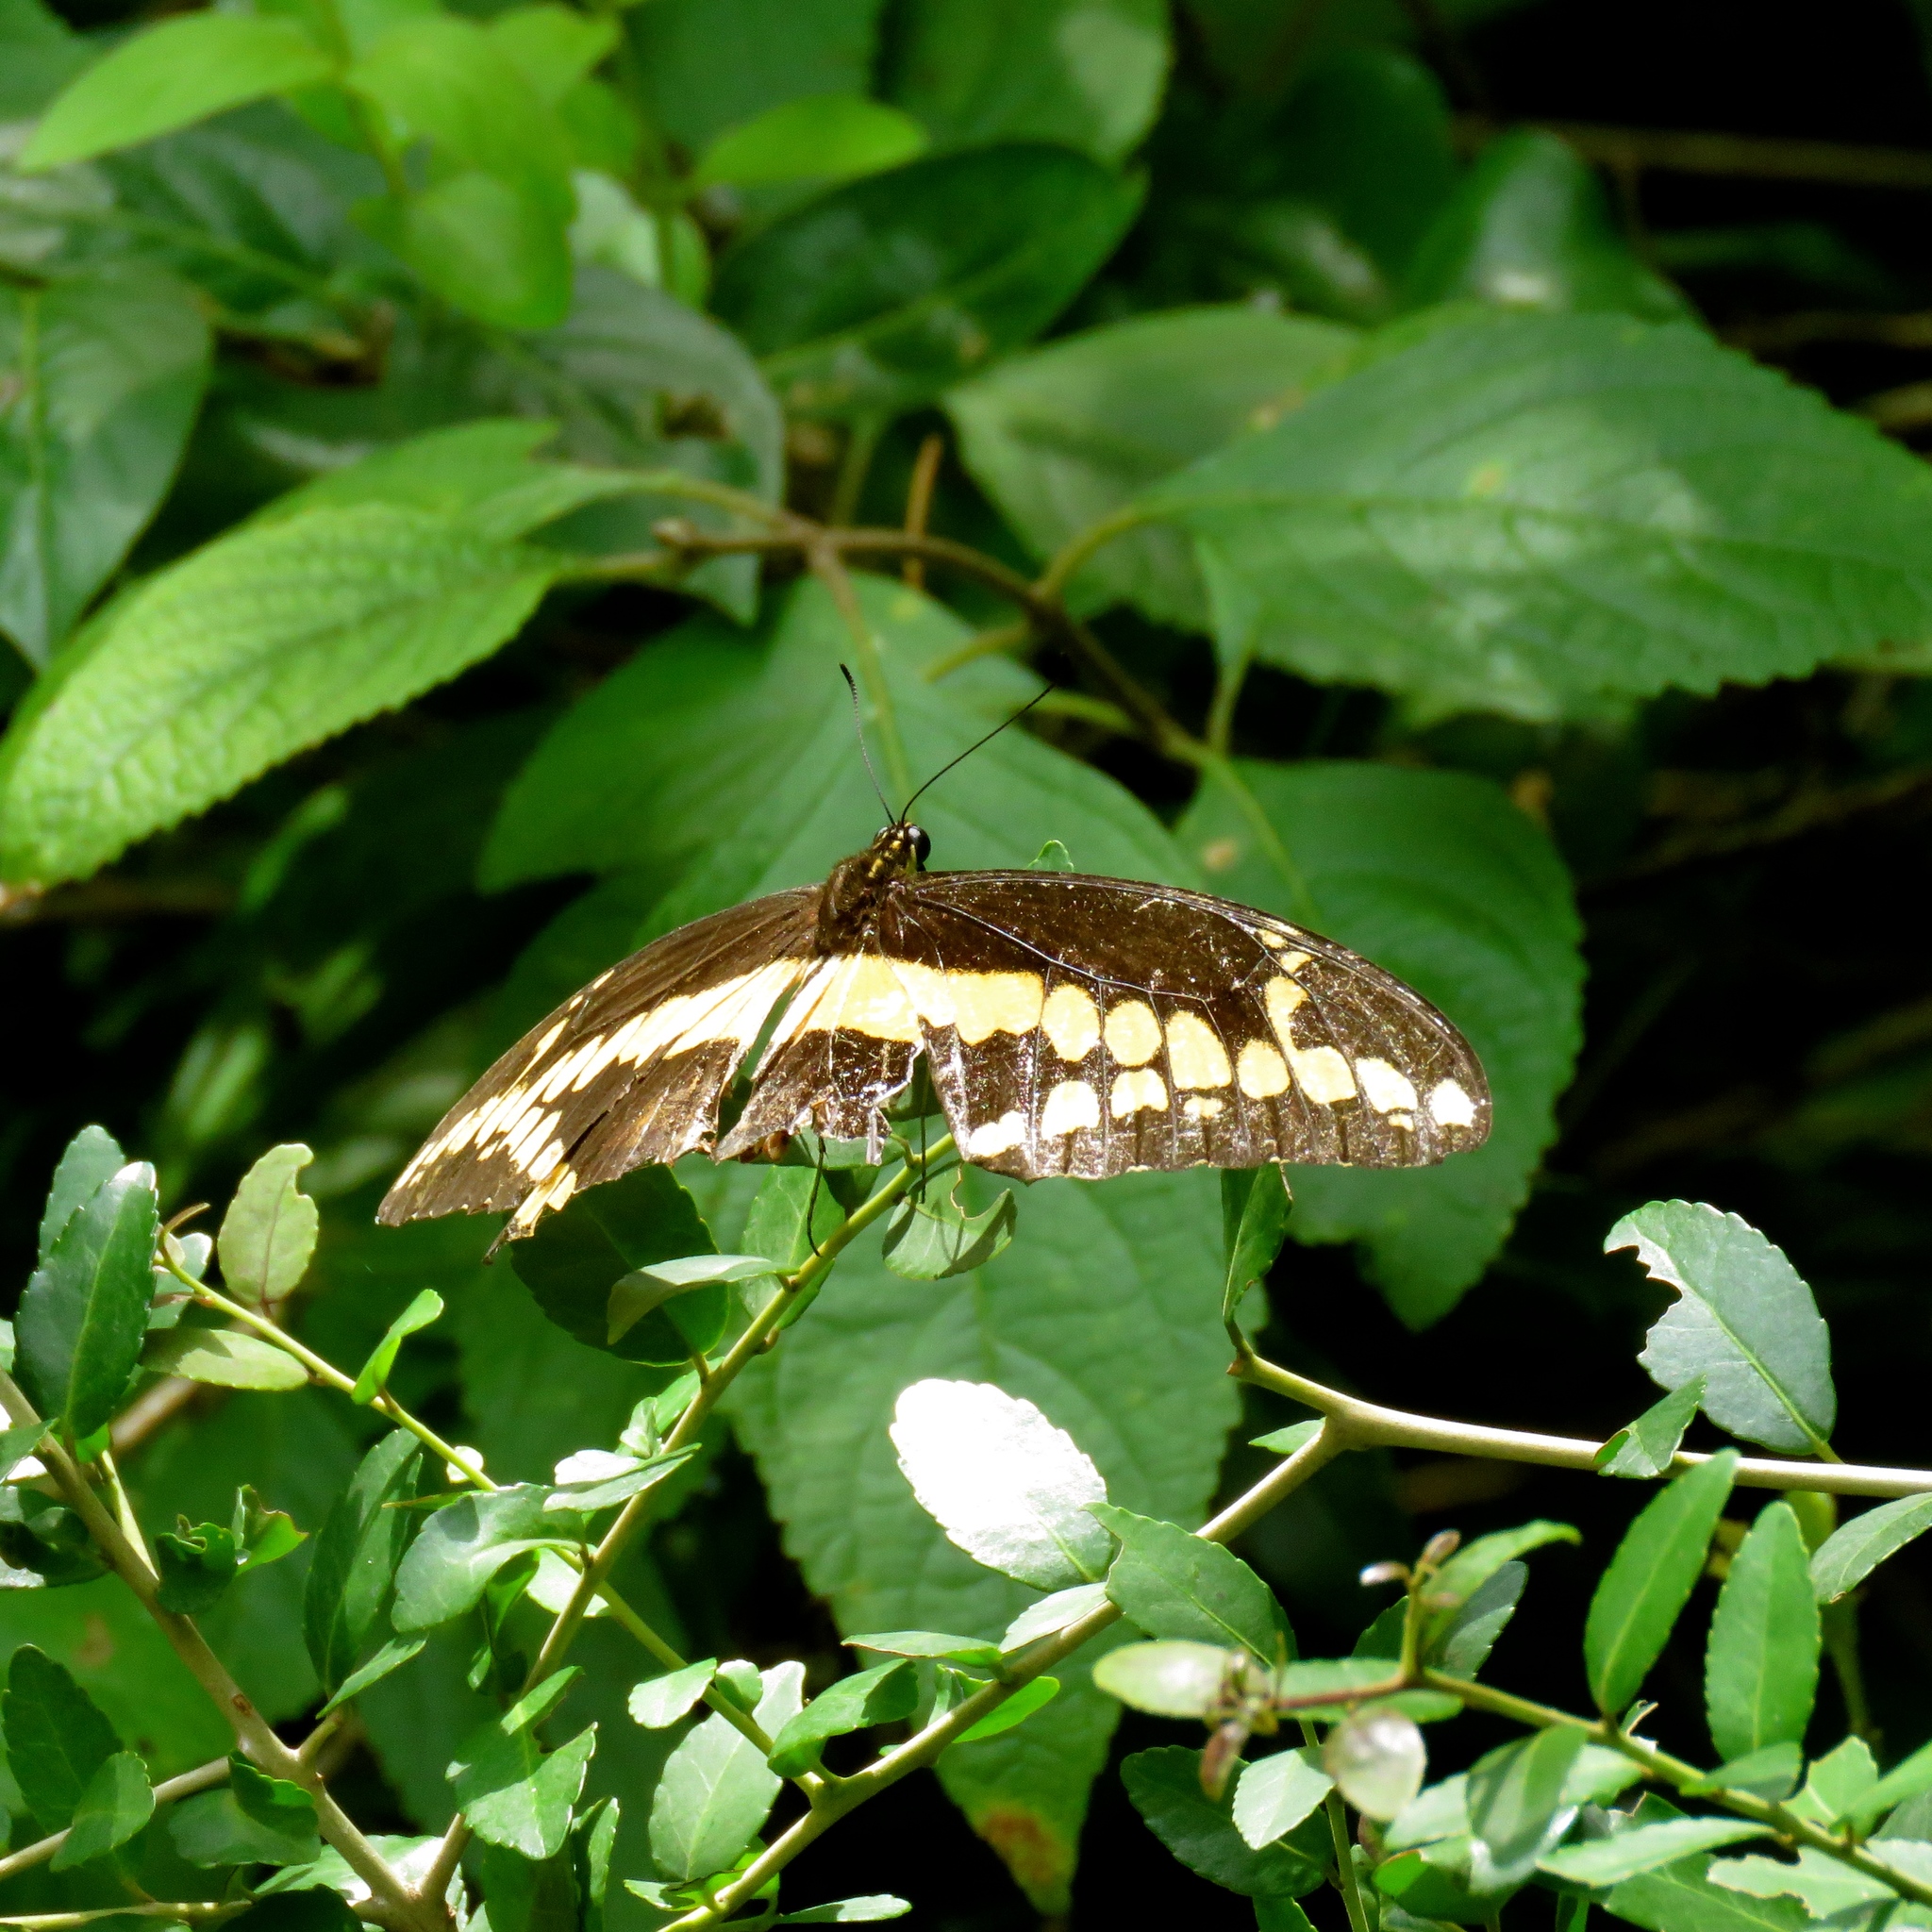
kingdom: Animalia
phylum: Arthropoda
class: Insecta
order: Lepidoptera
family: Papilionidae
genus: Papilio
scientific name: Papilio cresphontes
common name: Giant swallowtail
